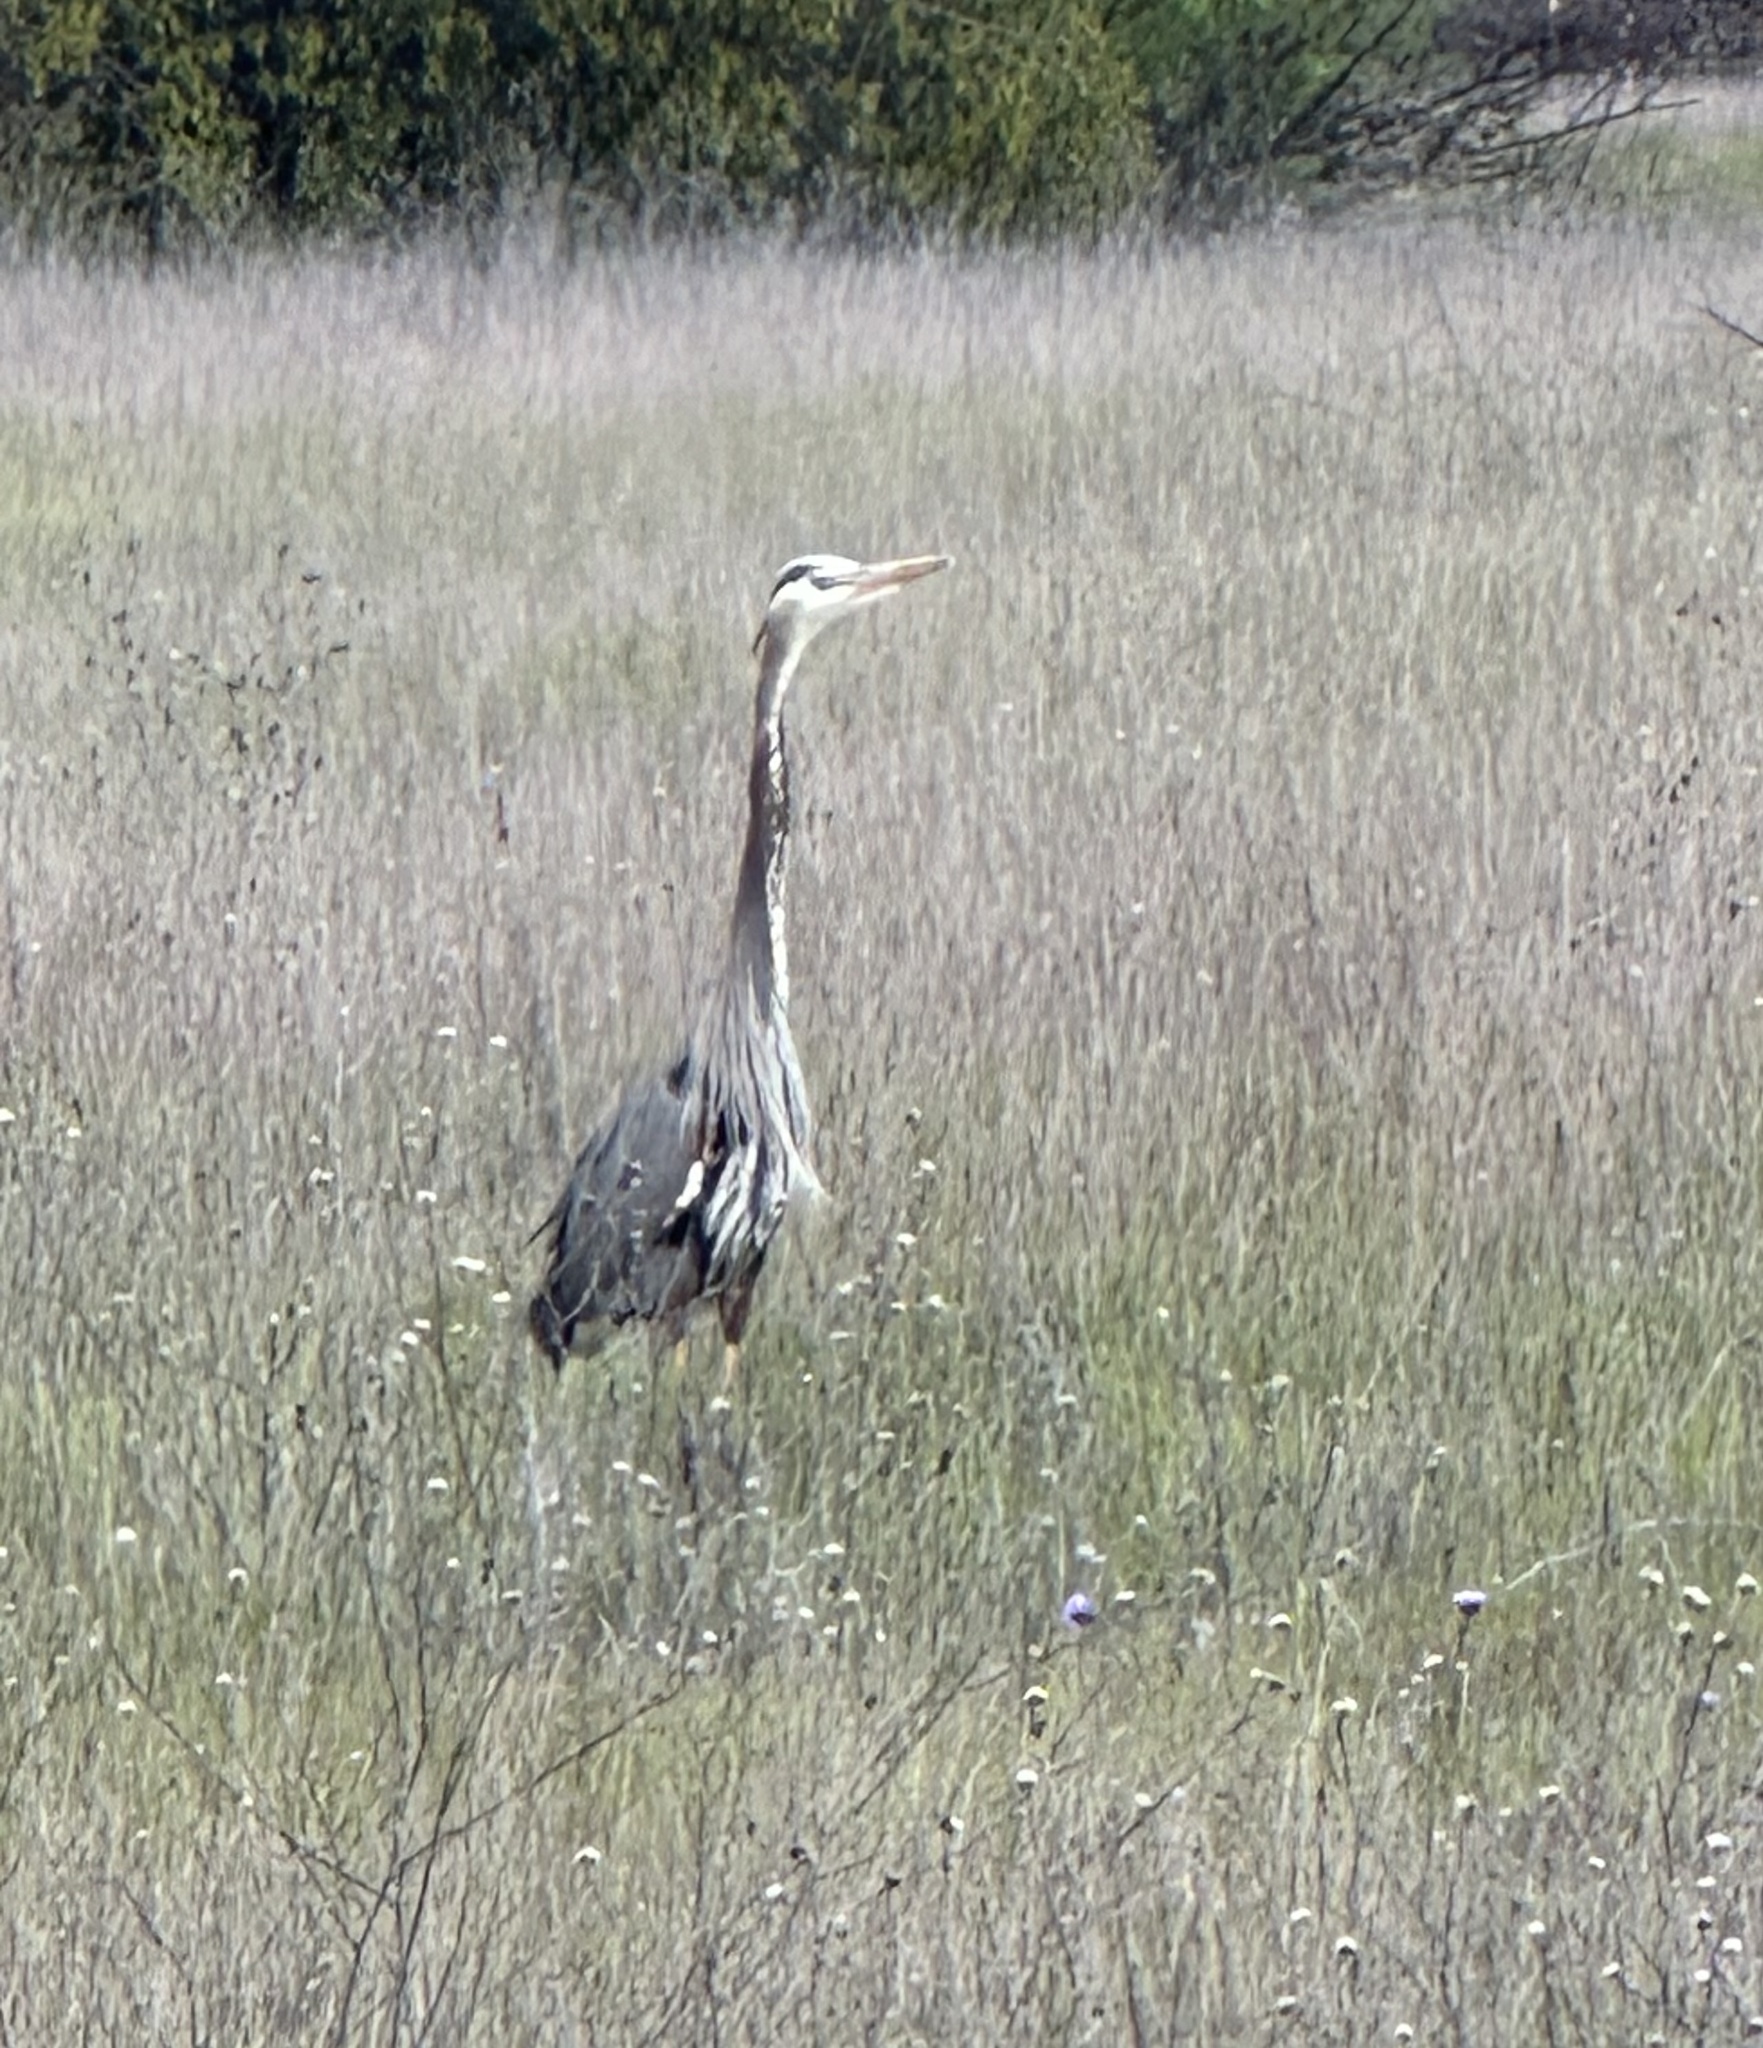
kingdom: Animalia
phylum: Chordata
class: Aves
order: Pelecaniformes
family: Ardeidae
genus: Ardea
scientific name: Ardea herodias
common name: Great blue heron
